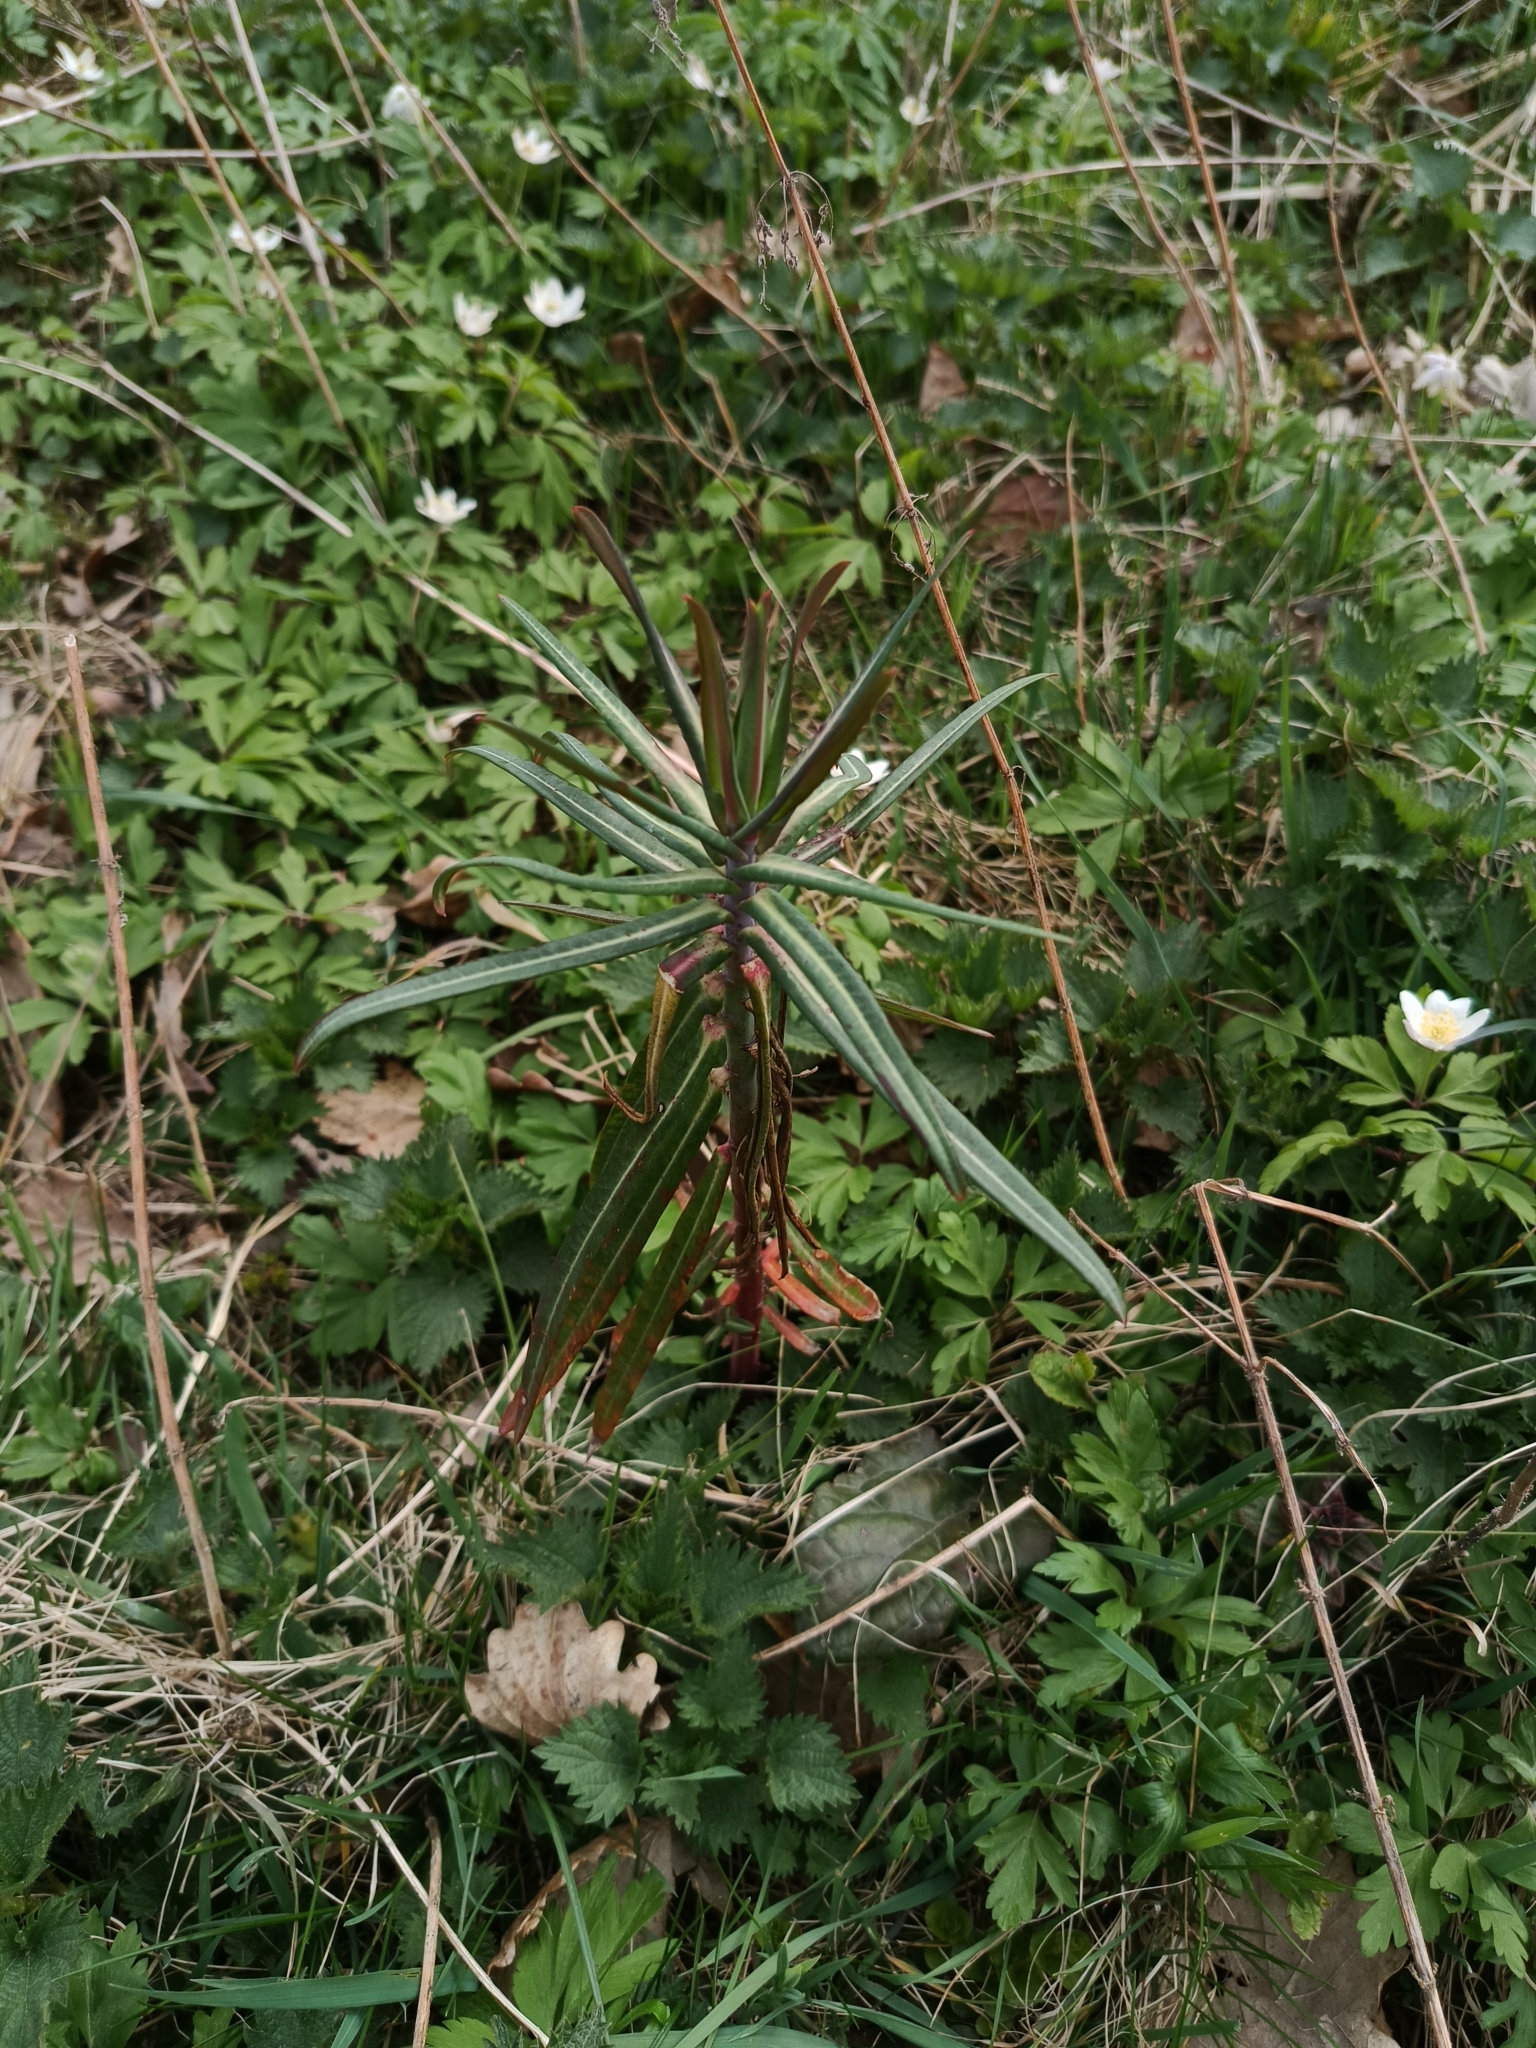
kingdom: Plantae
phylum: Tracheophyta
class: Magnoliopsida
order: Malpighiales
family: Euphorbiaceae
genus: Euphorbia
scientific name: Euphorbia lathyris
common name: Caper spurge
